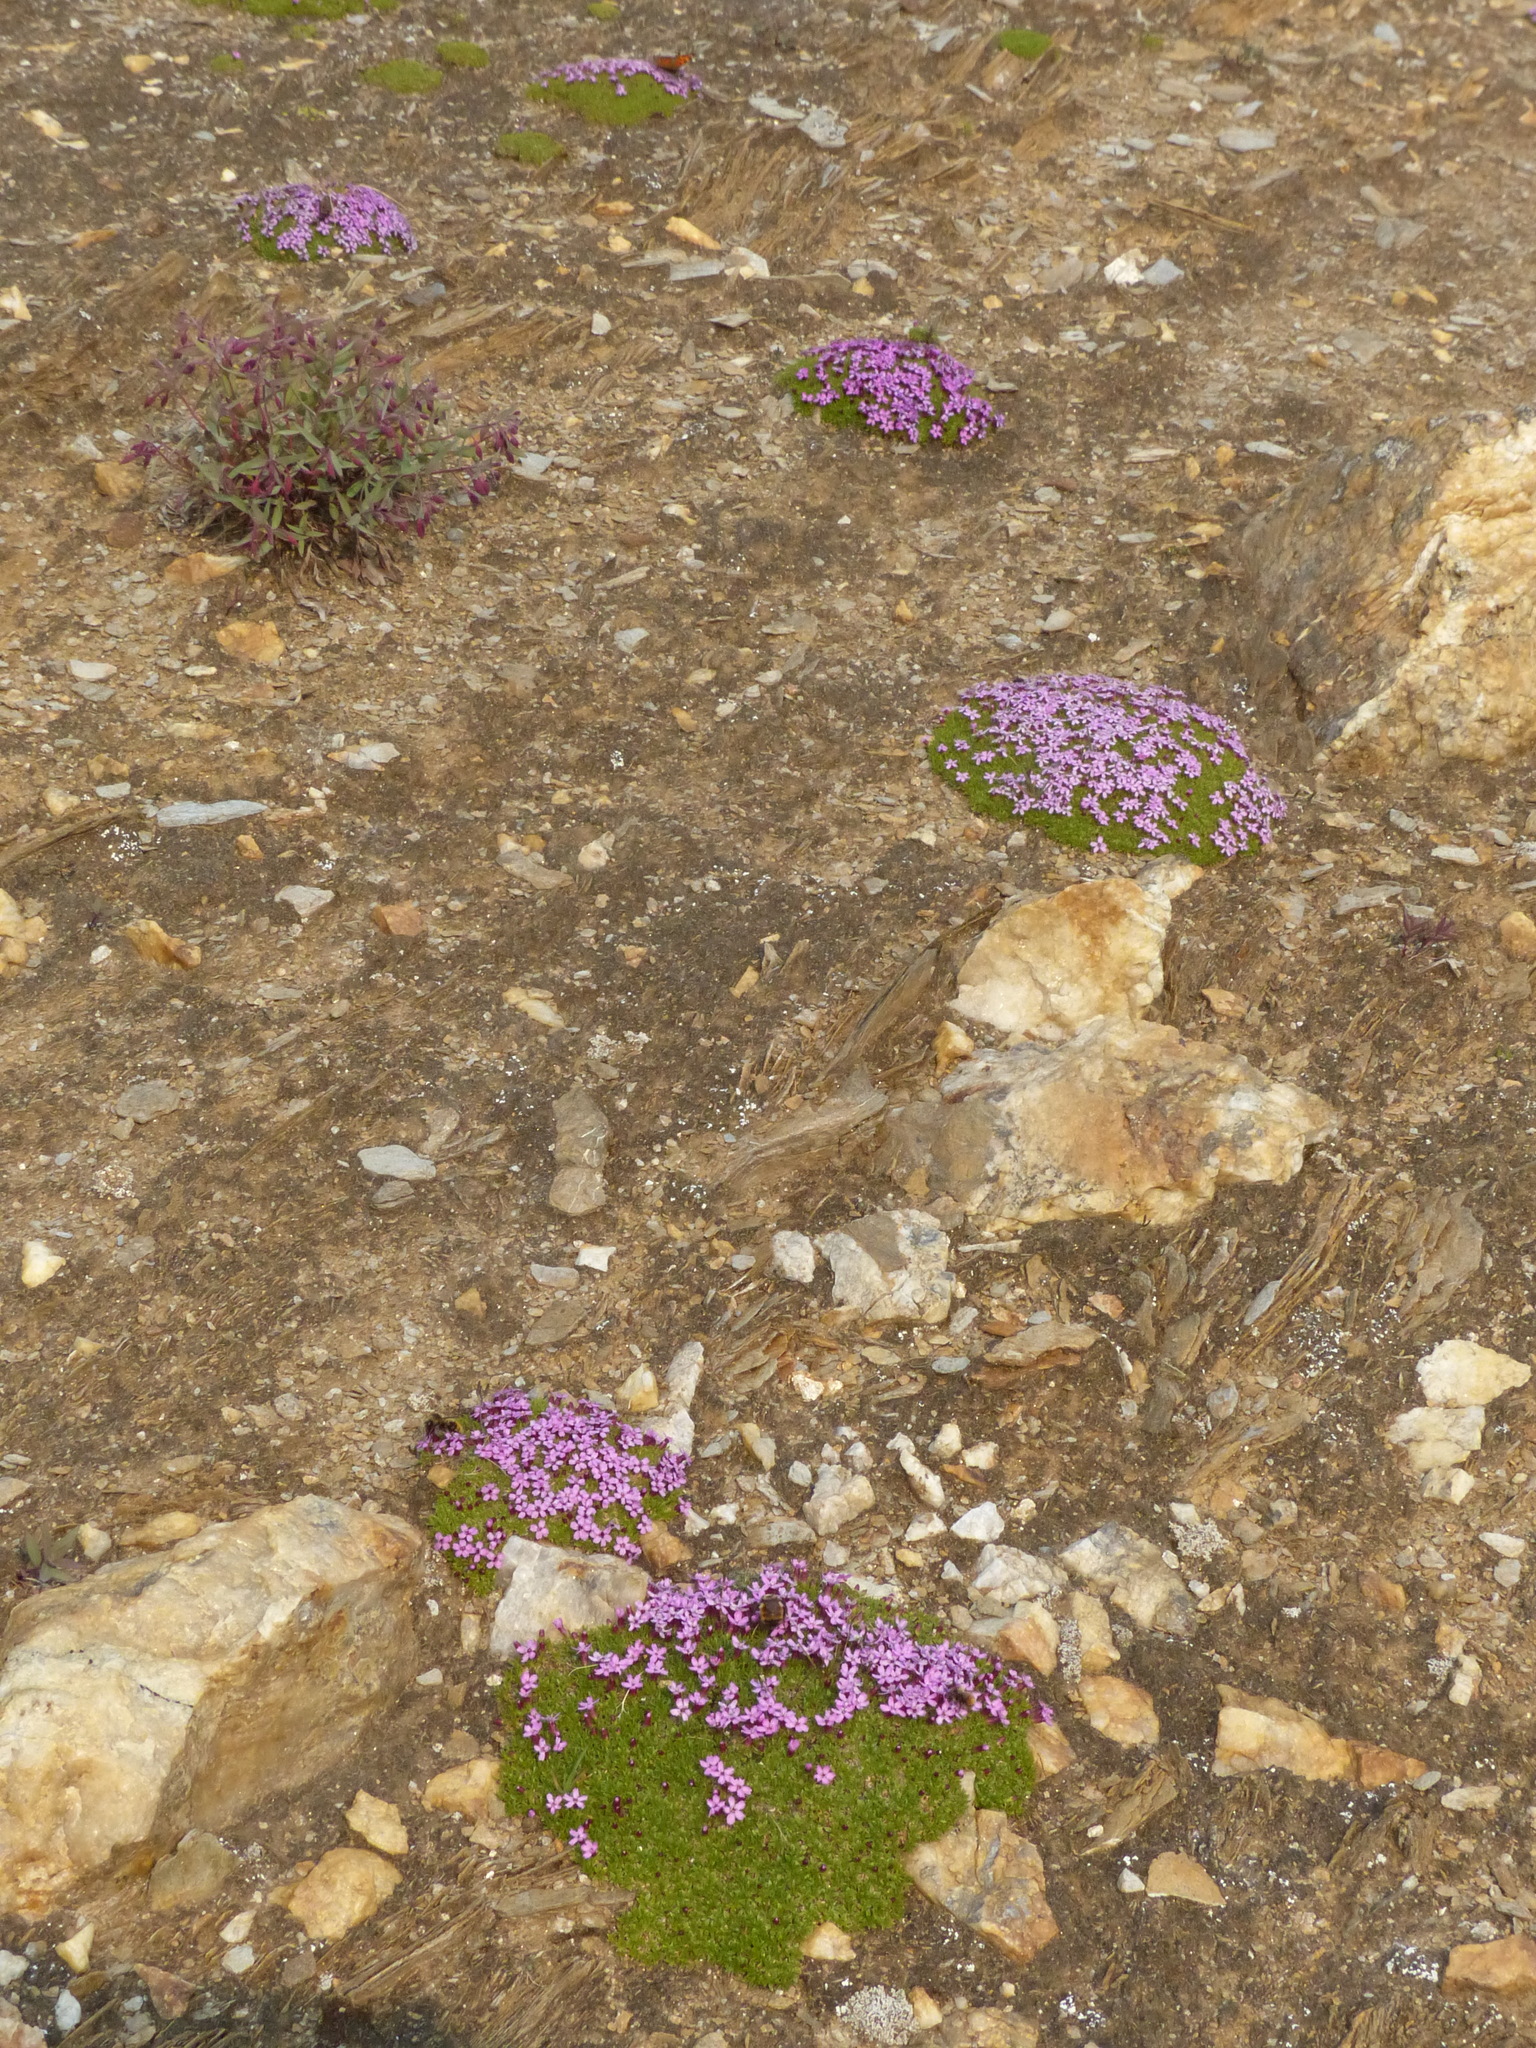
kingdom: Plantae
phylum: Tracheophyta
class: Magnoliopsida
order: Caryophyllales
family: Caryophyllaceae
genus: Silene
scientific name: Silene acaulis
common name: Moss campion
